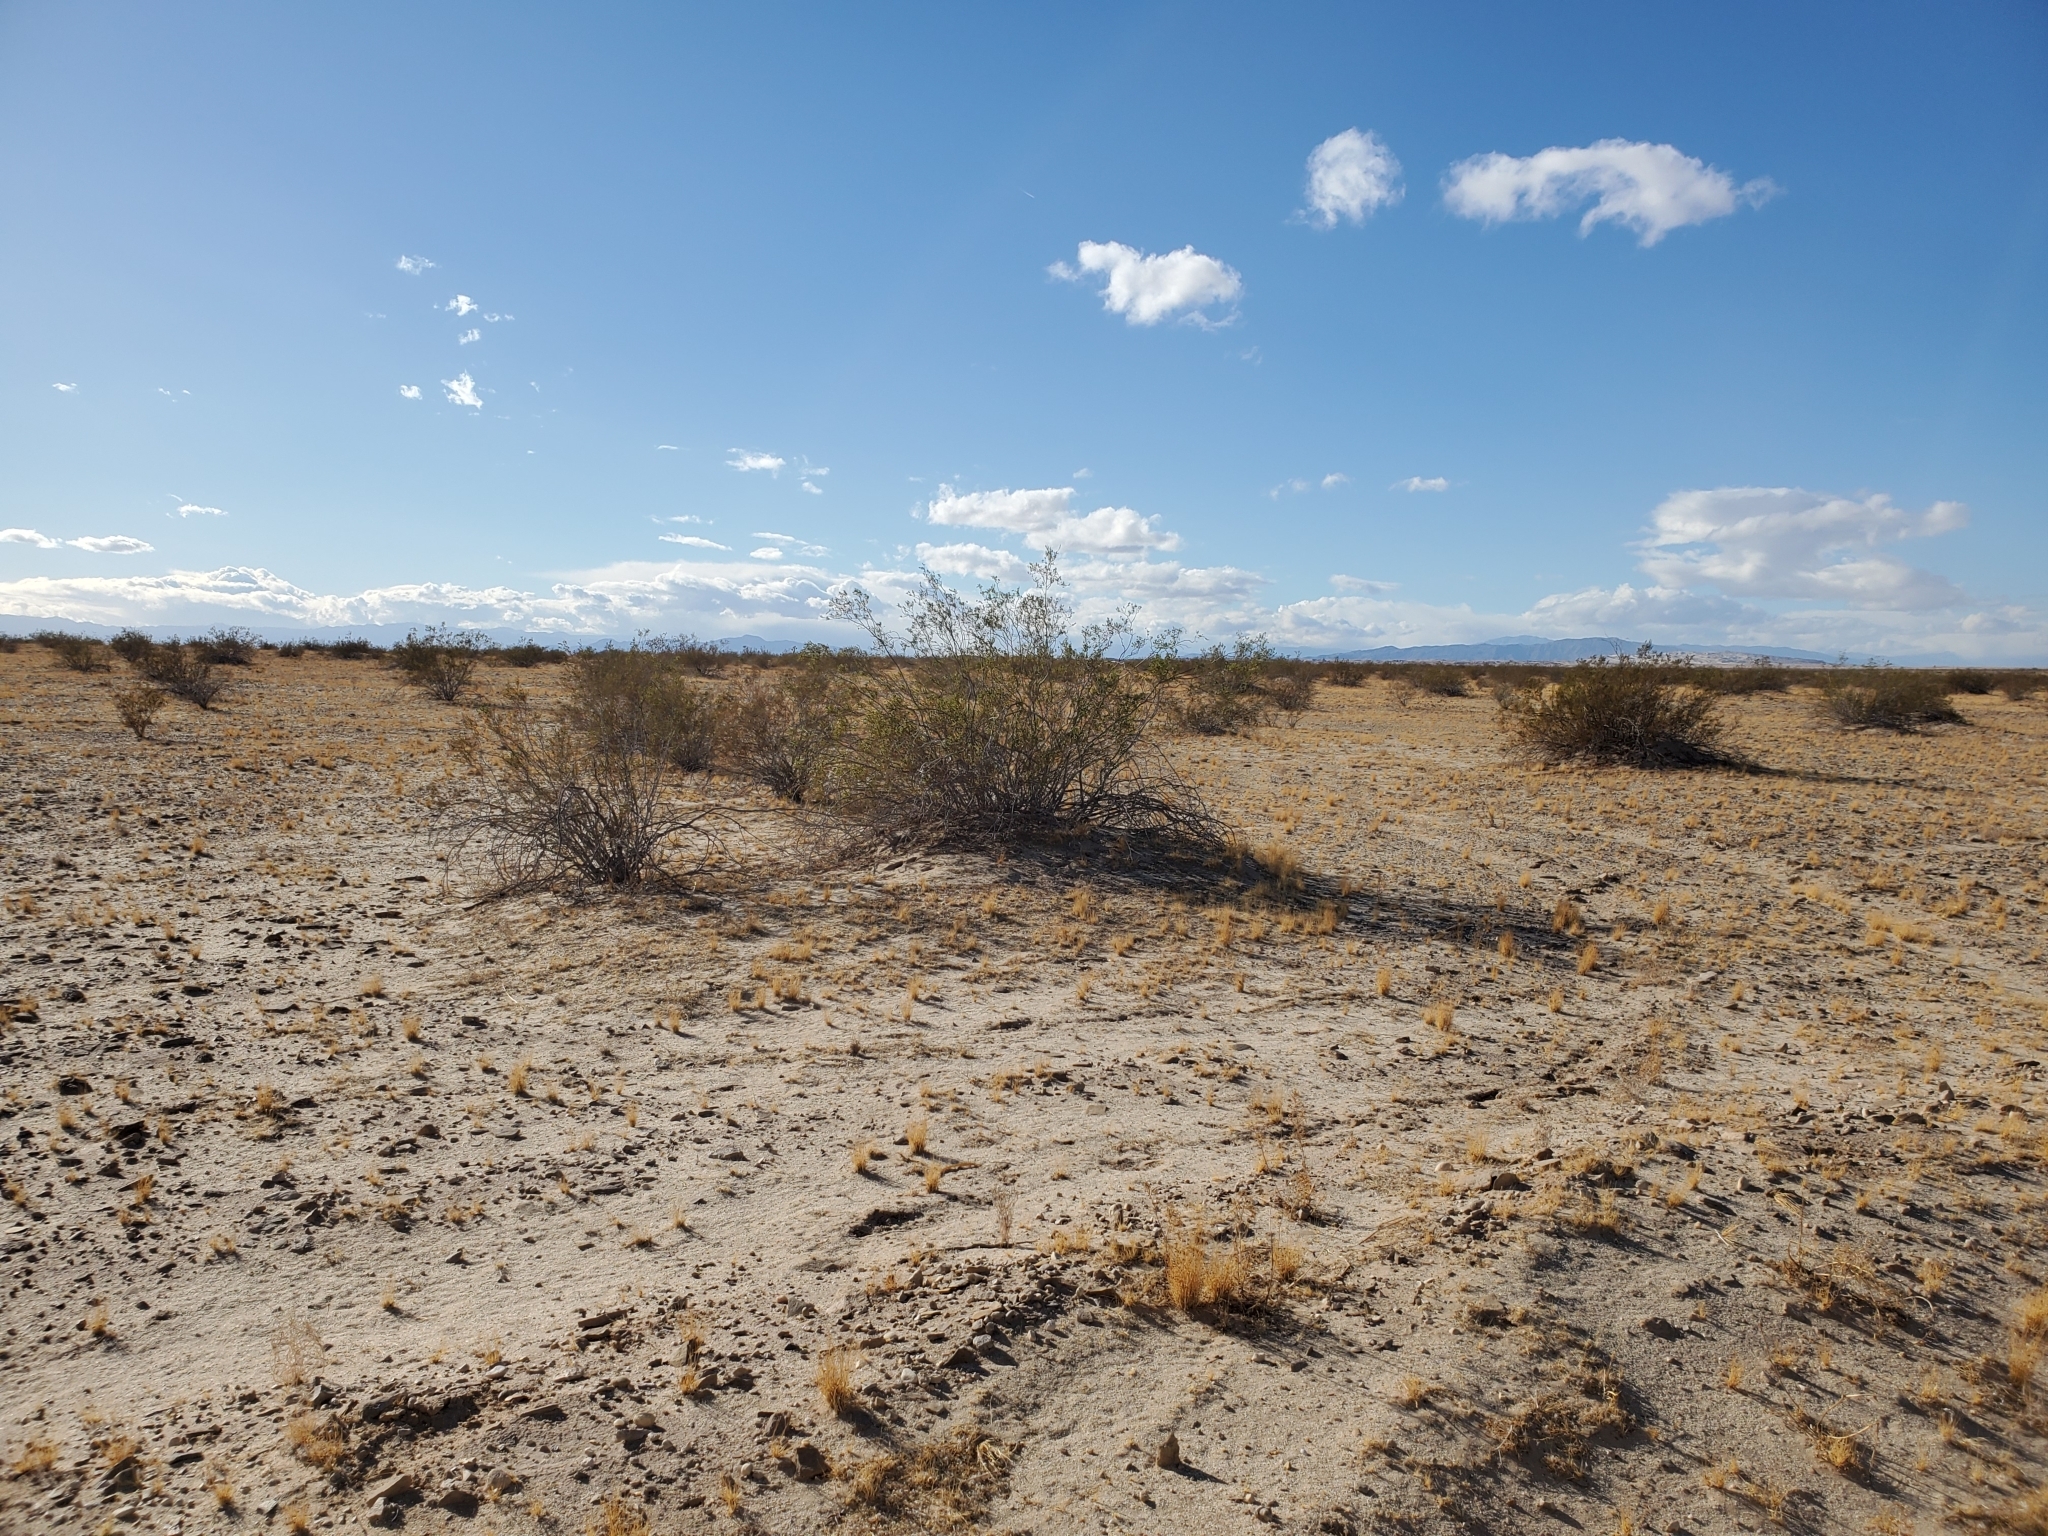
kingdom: Plantae
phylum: Tracheophyta
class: Magnoliopsida
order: Zygophyllales
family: Zygophyllaceae
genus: Larrea
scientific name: Larrea tridentata
